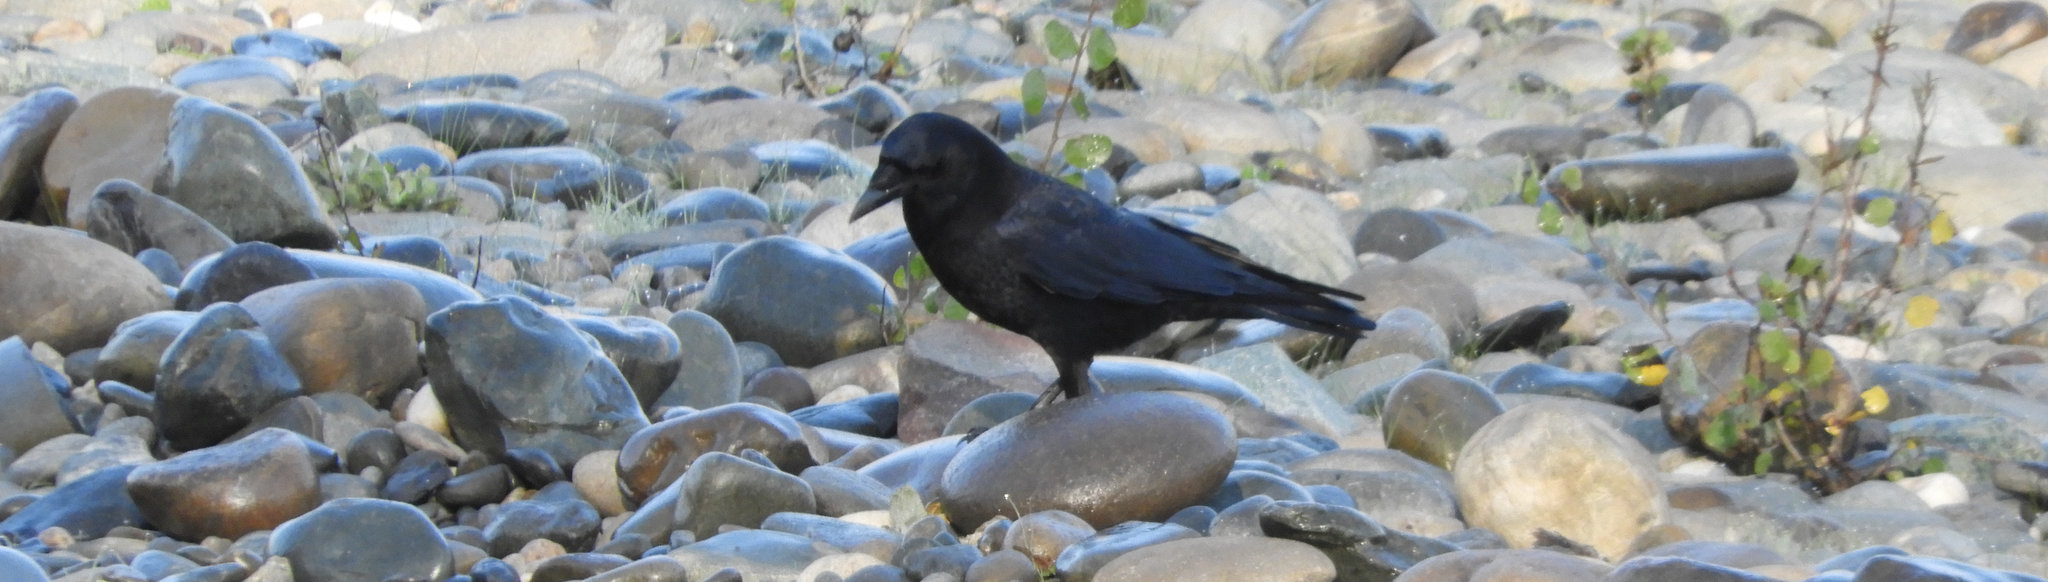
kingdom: Animalia
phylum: Chordata
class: Aves
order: Passeriformes
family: Corvidae
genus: Corvus
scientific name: Corvus brachyrhynchos
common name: American crow
